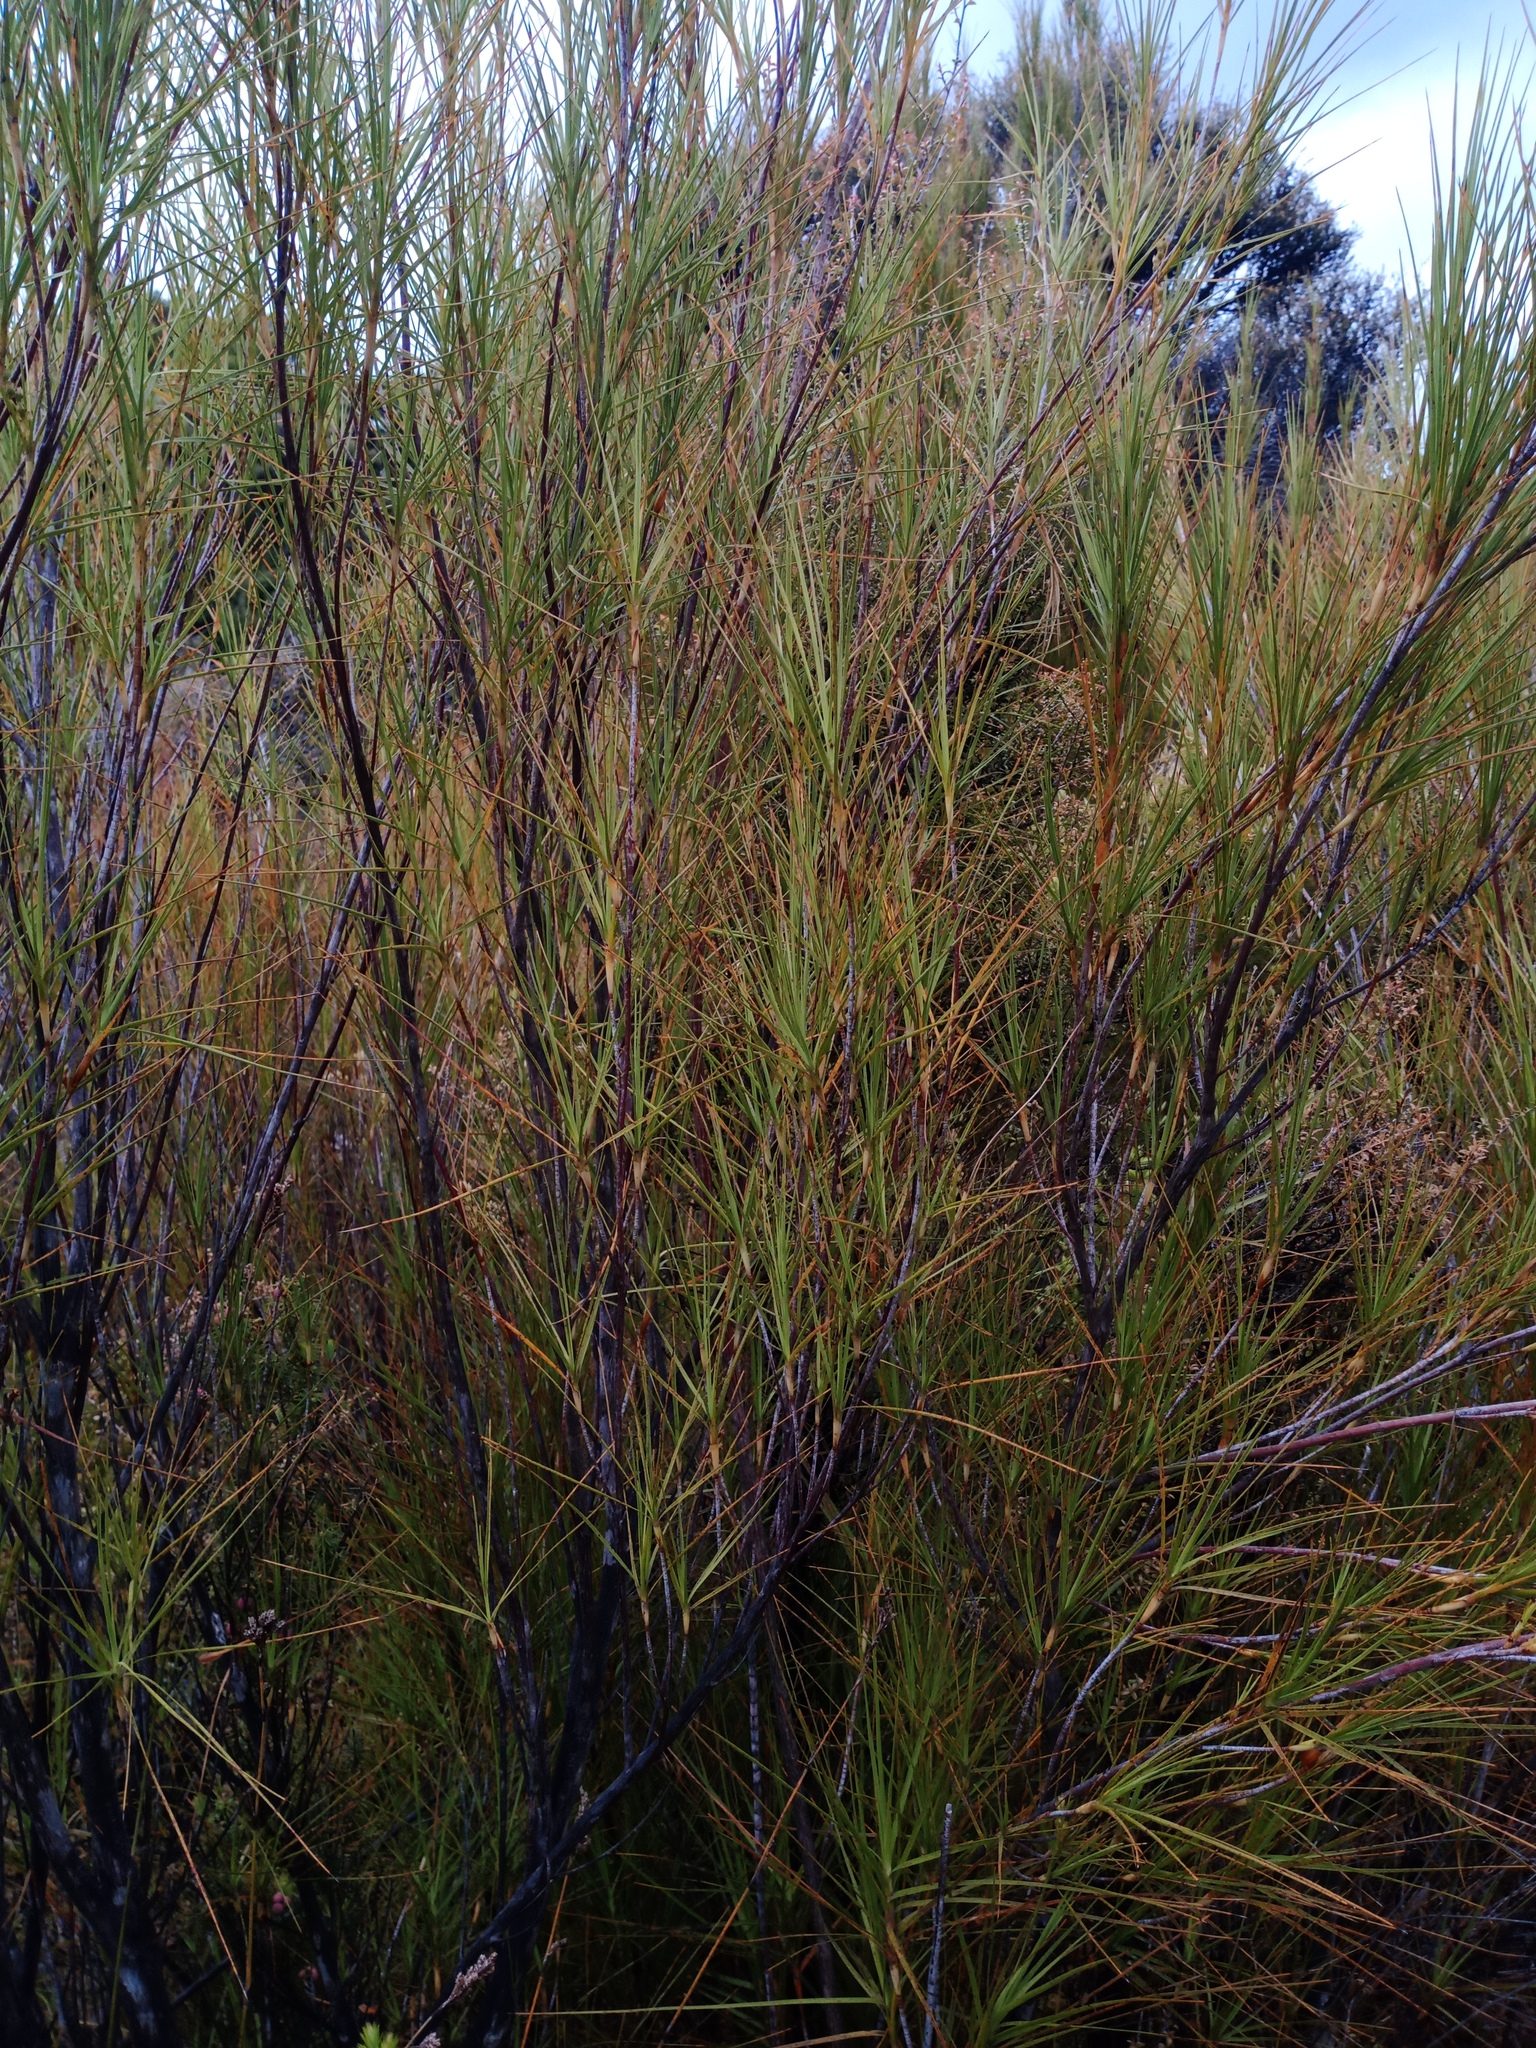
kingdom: Plantae
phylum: Tracheophyta
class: Magnoliopsida
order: Ericales
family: Ericaceae
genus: Dracophyllum
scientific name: Dracophyllum longifolium
